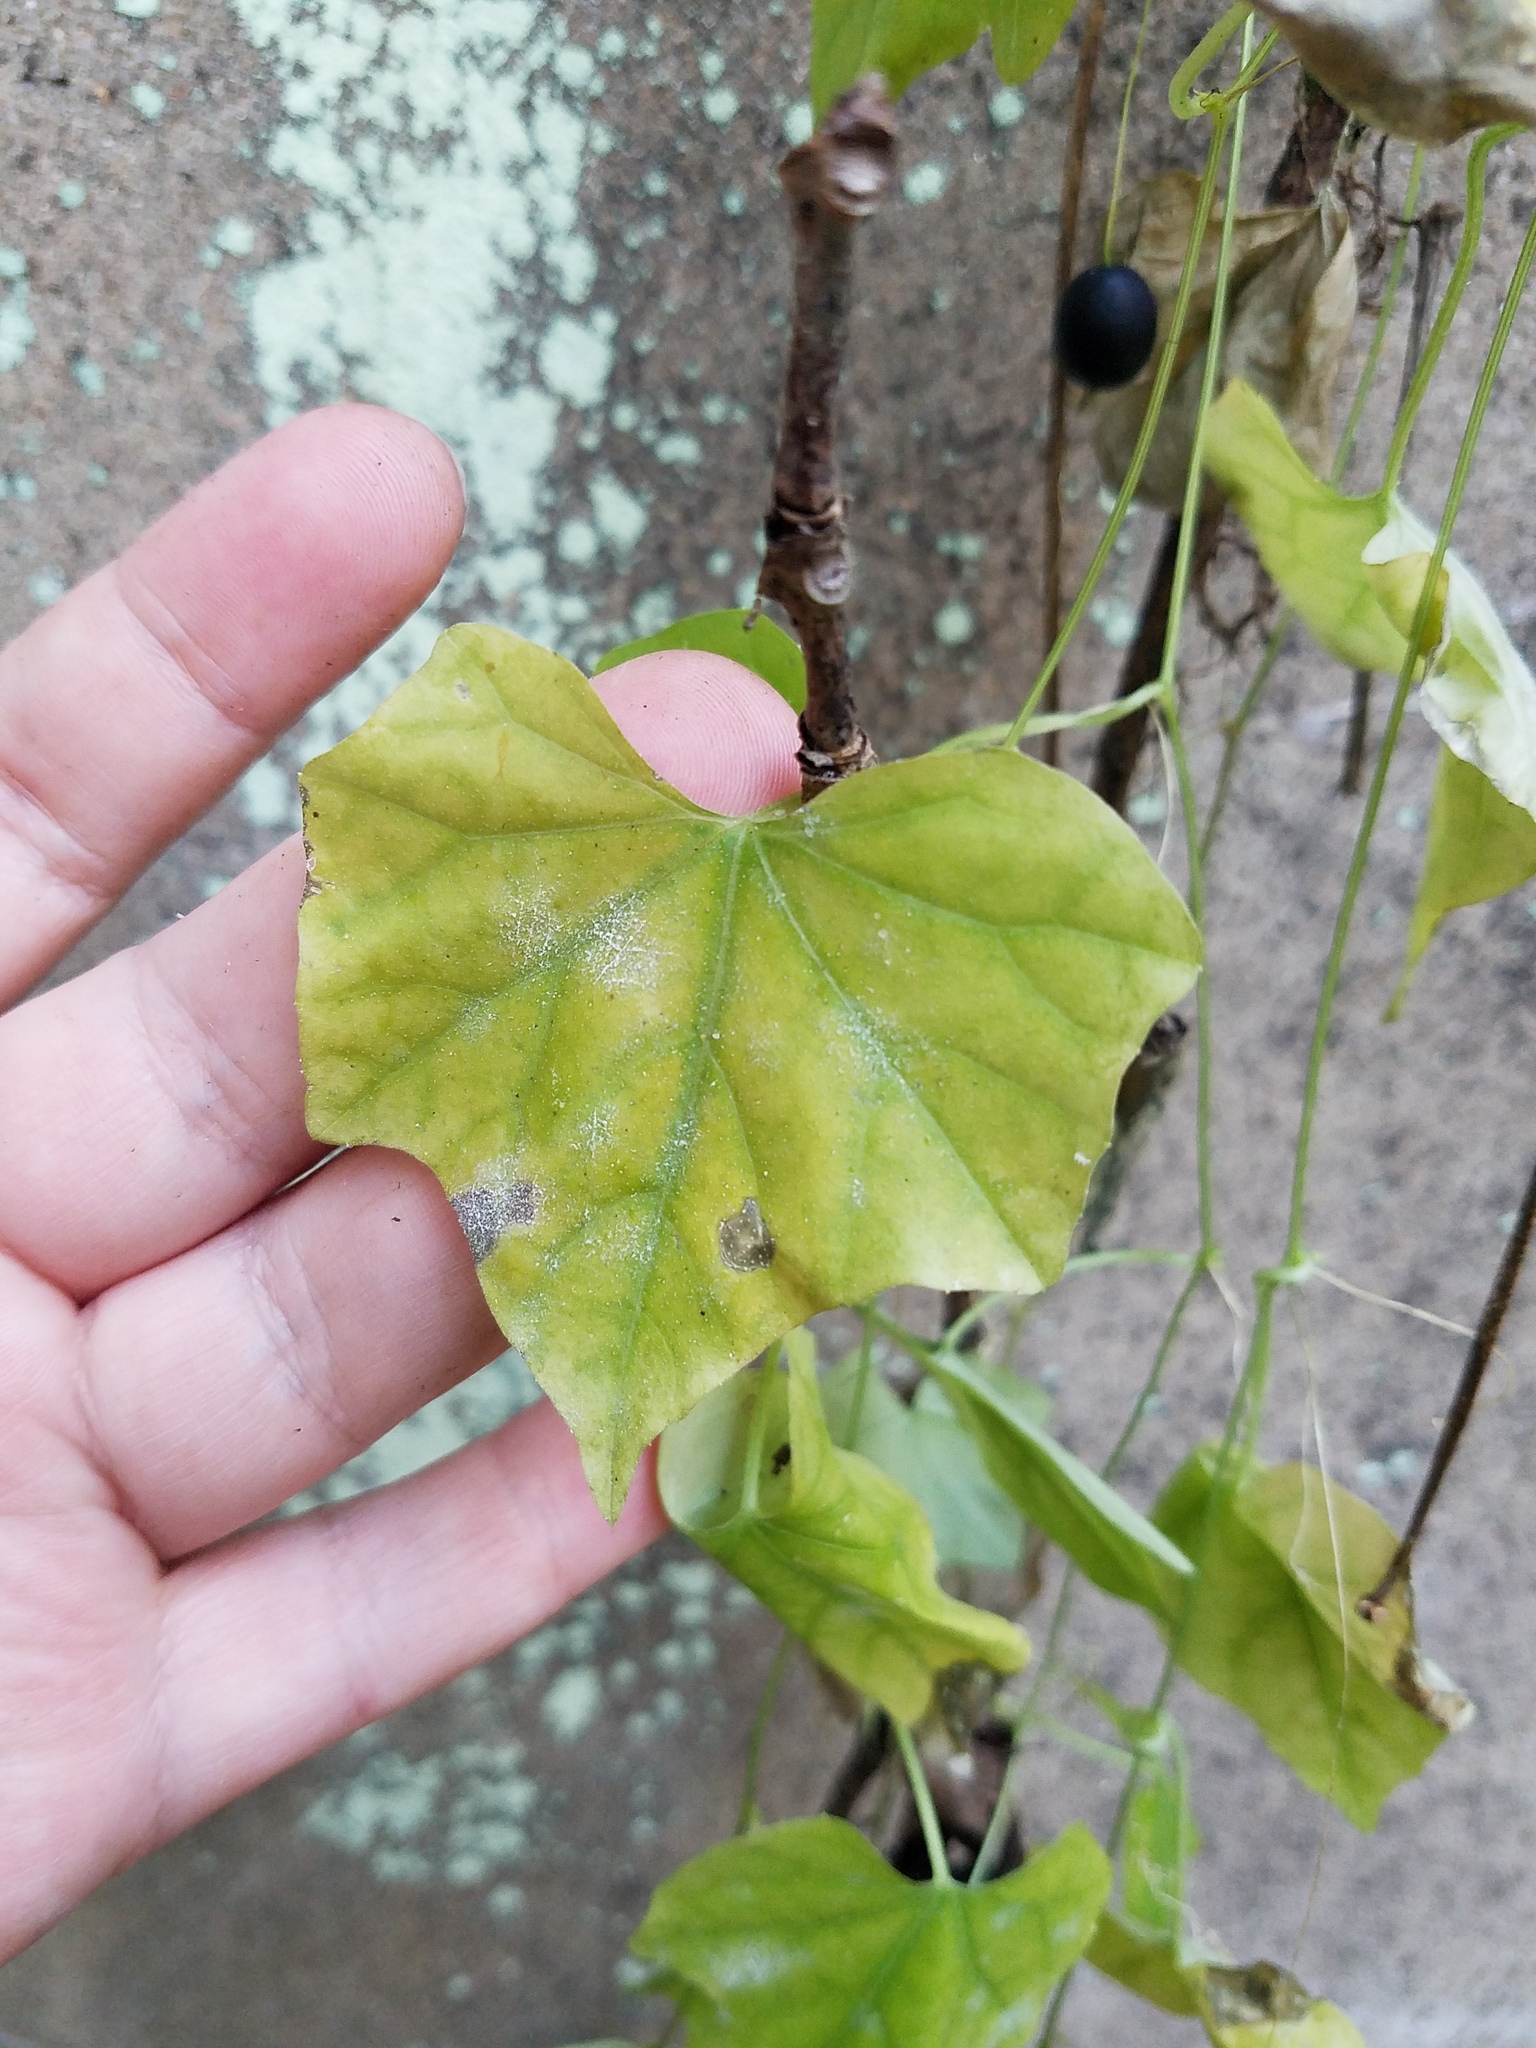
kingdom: Plantae
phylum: Tracheophyta
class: Magnoliopsida
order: Cucurbitales
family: Cucurbitaceae
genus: Melothria
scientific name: Melothria pendula
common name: Creeping-cucumber
